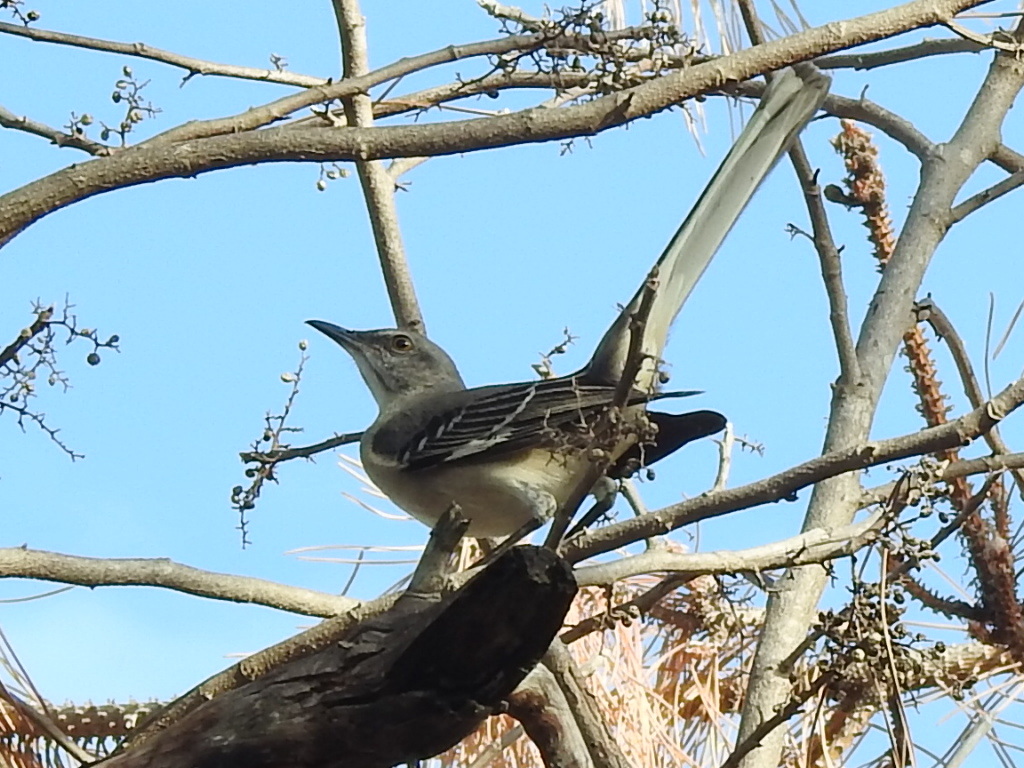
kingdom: Animalia
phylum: Chordata
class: Aves
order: Passeriformes
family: Mimidae
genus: Mimus
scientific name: Mimus polyglottos
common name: Northern mockingbird
